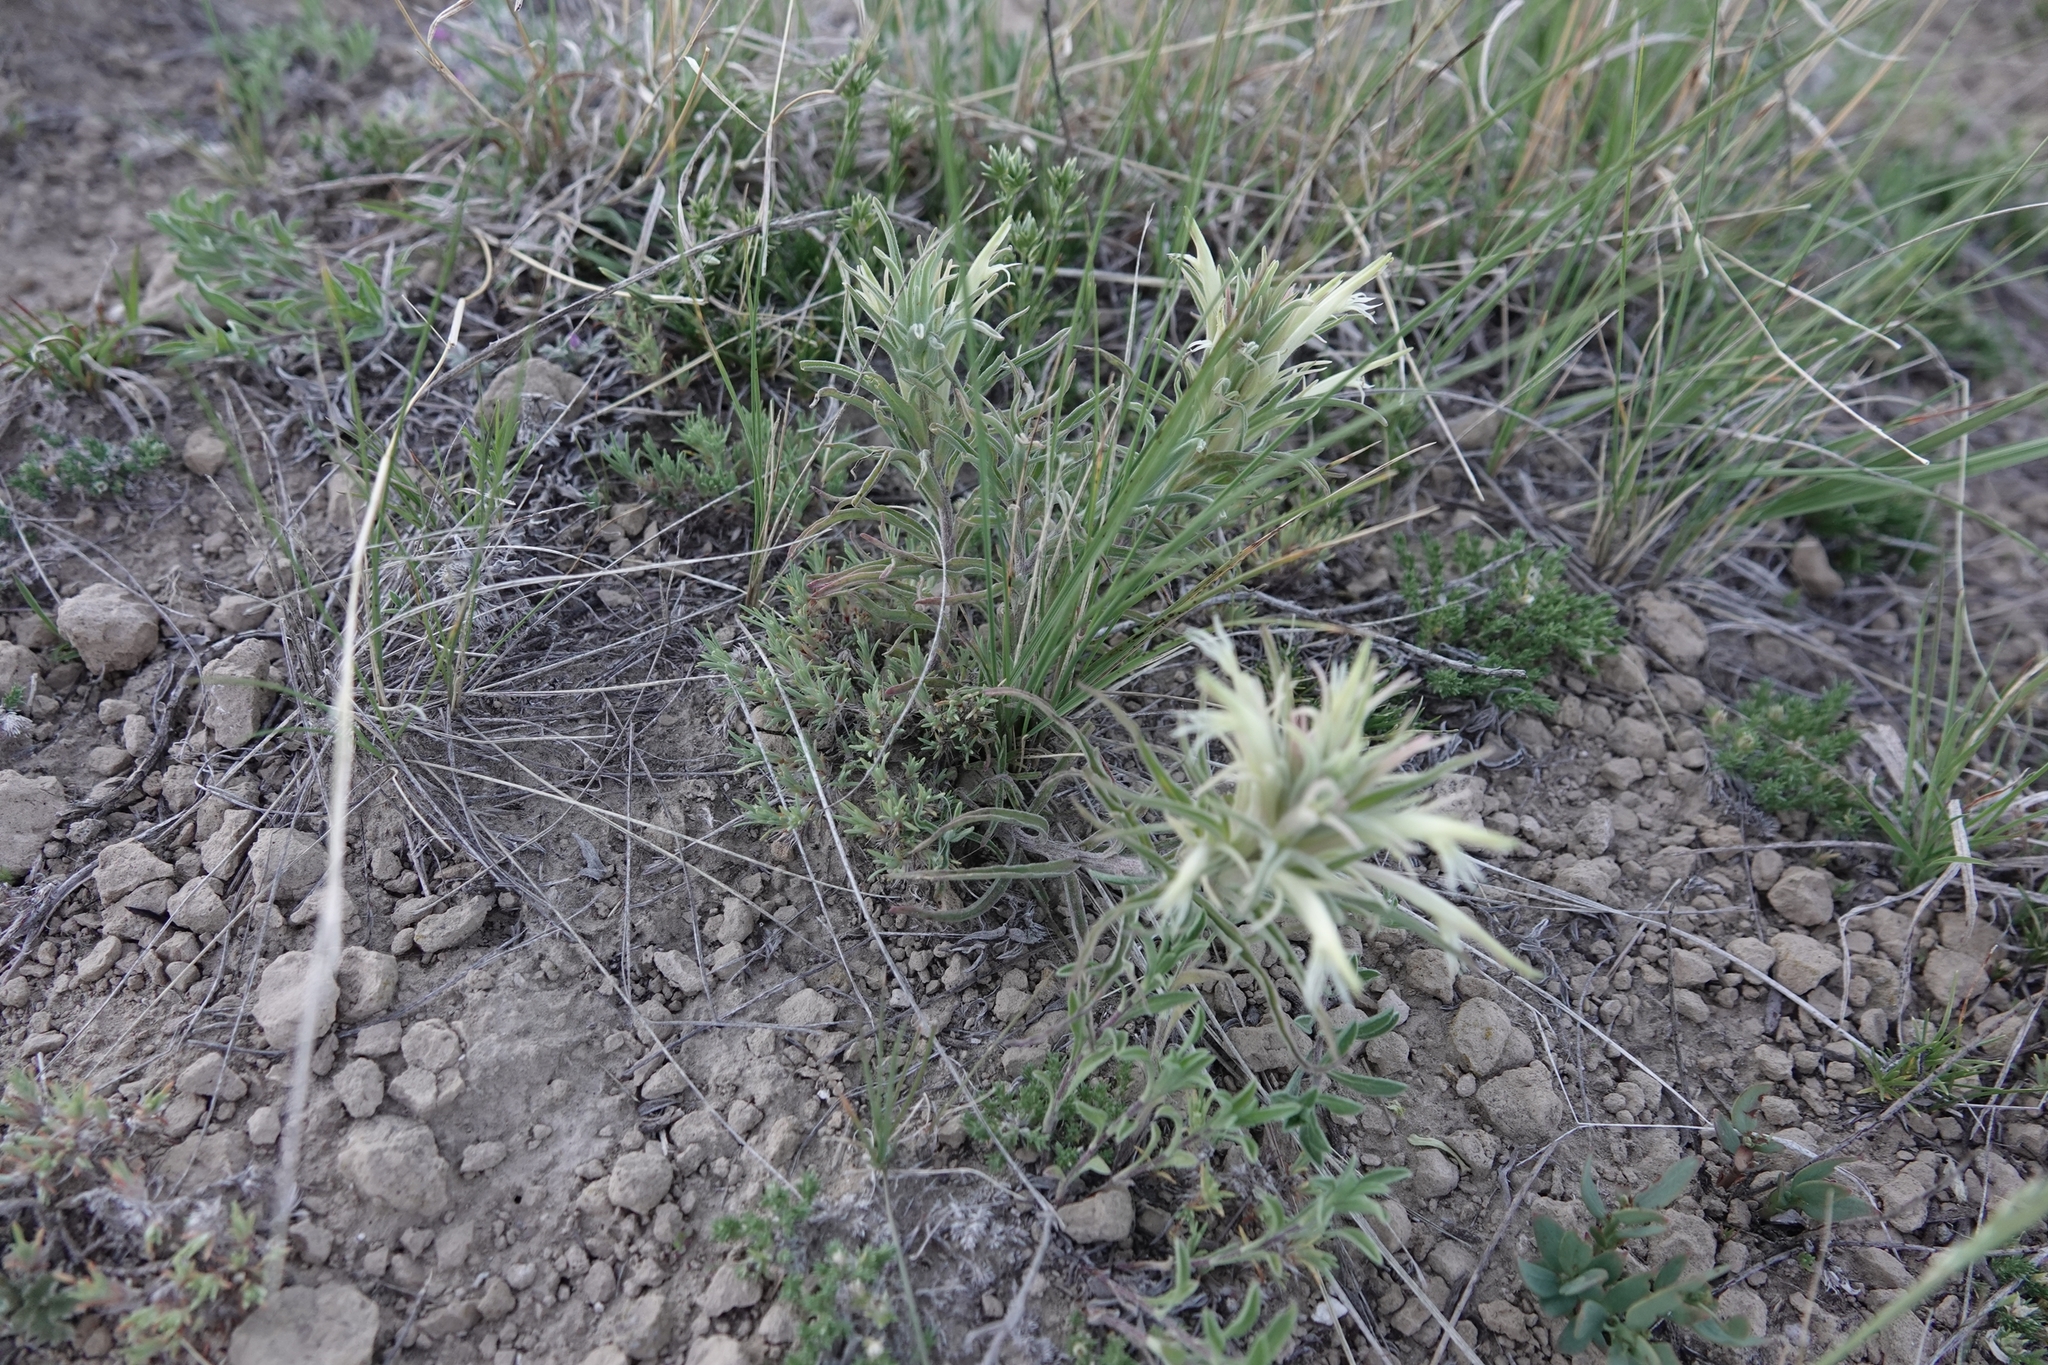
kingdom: Plantae
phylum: Tracheophyta
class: Magnoliopsida
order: Lamiales
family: Orobanchaceae
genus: Castilleja
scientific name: Castilleja sessiliflora
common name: Downy paintbrush
